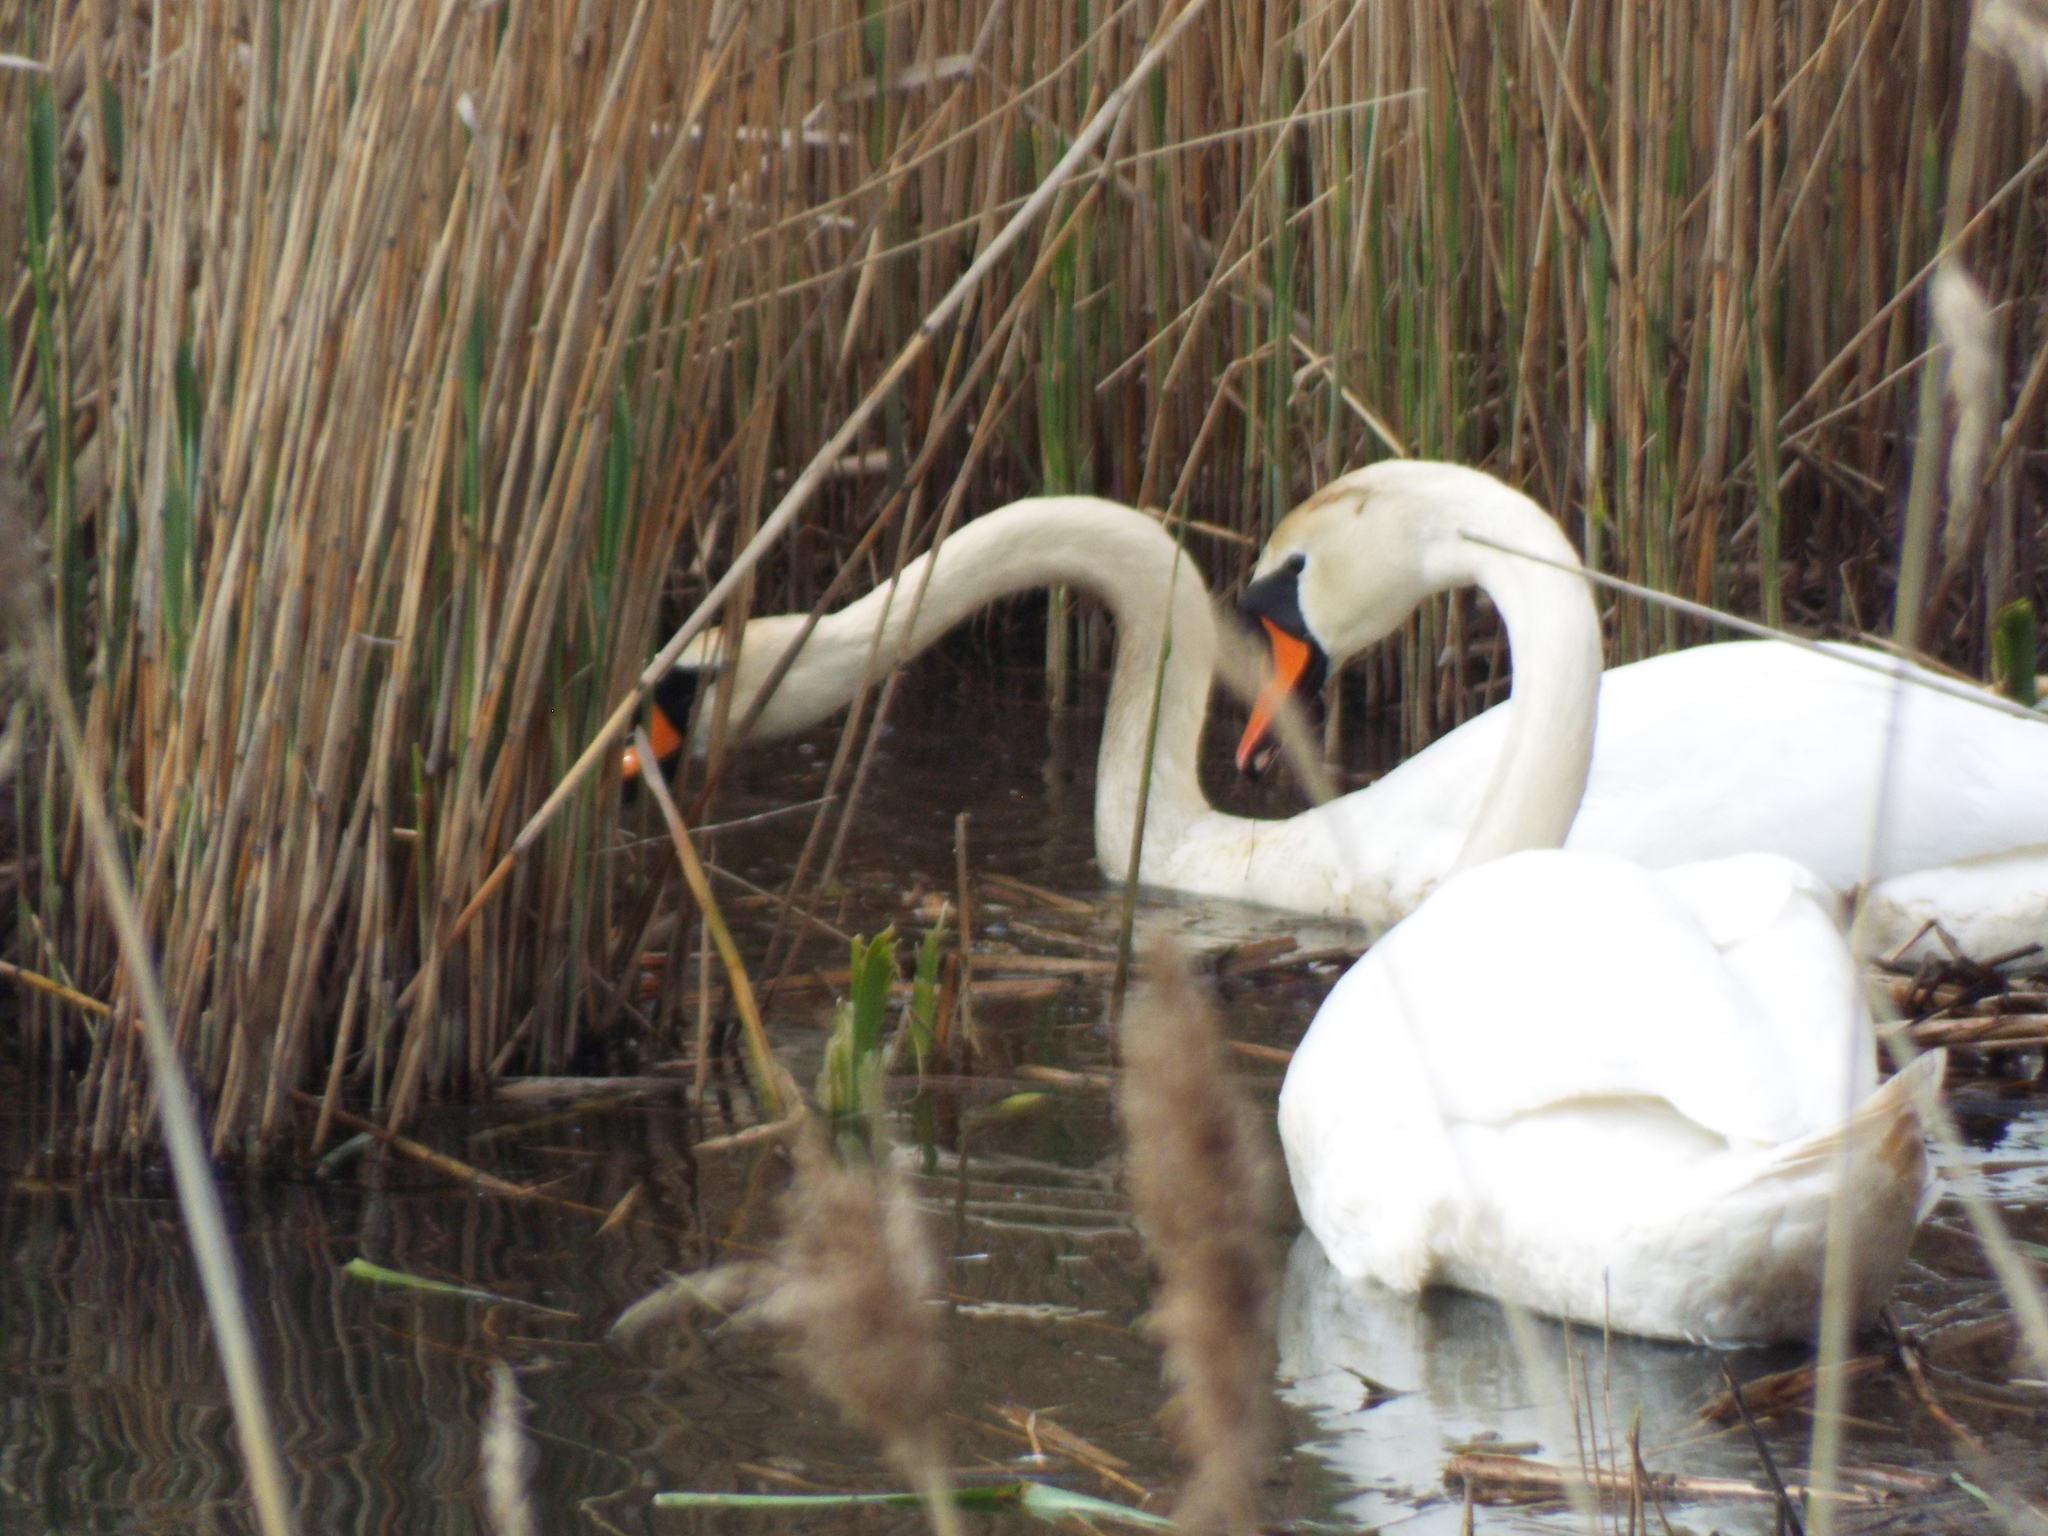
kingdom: Animalia
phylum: Chordata
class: Aves
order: Anseriformes
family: Anatidae
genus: Cygnus
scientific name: Cygnus olor
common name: Mute swan
